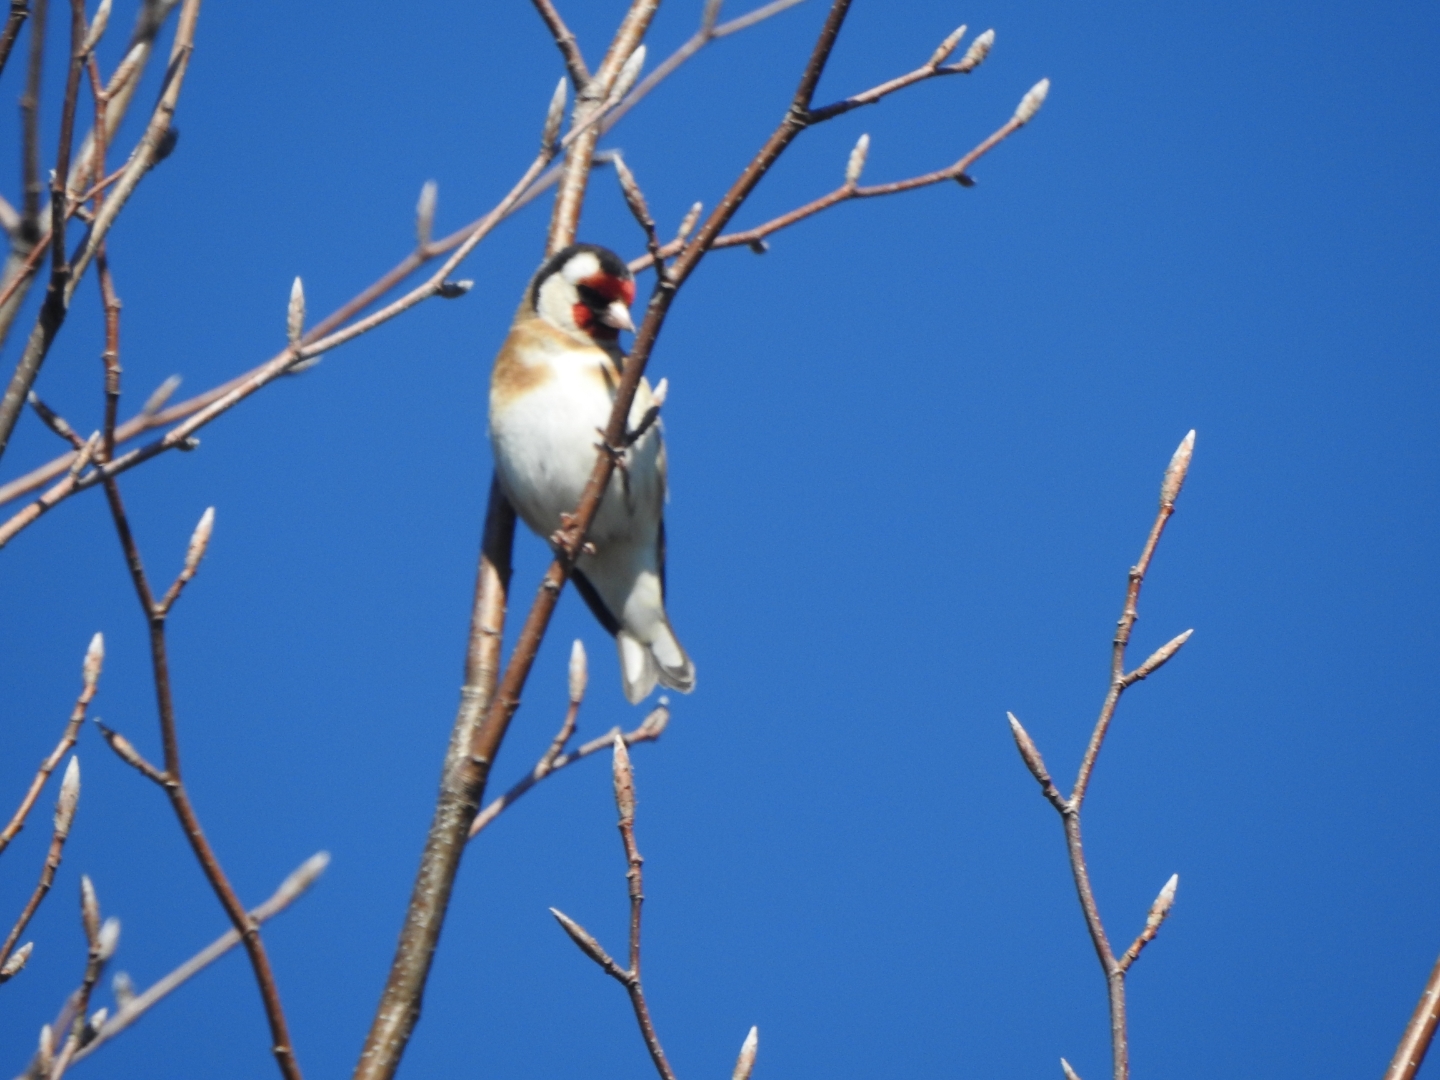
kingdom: Animalia
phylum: Chordata
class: Aves
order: Passeriformes
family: Fringillidae
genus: Carduelis
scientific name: Carduelis carduelis
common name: European goldfinch
